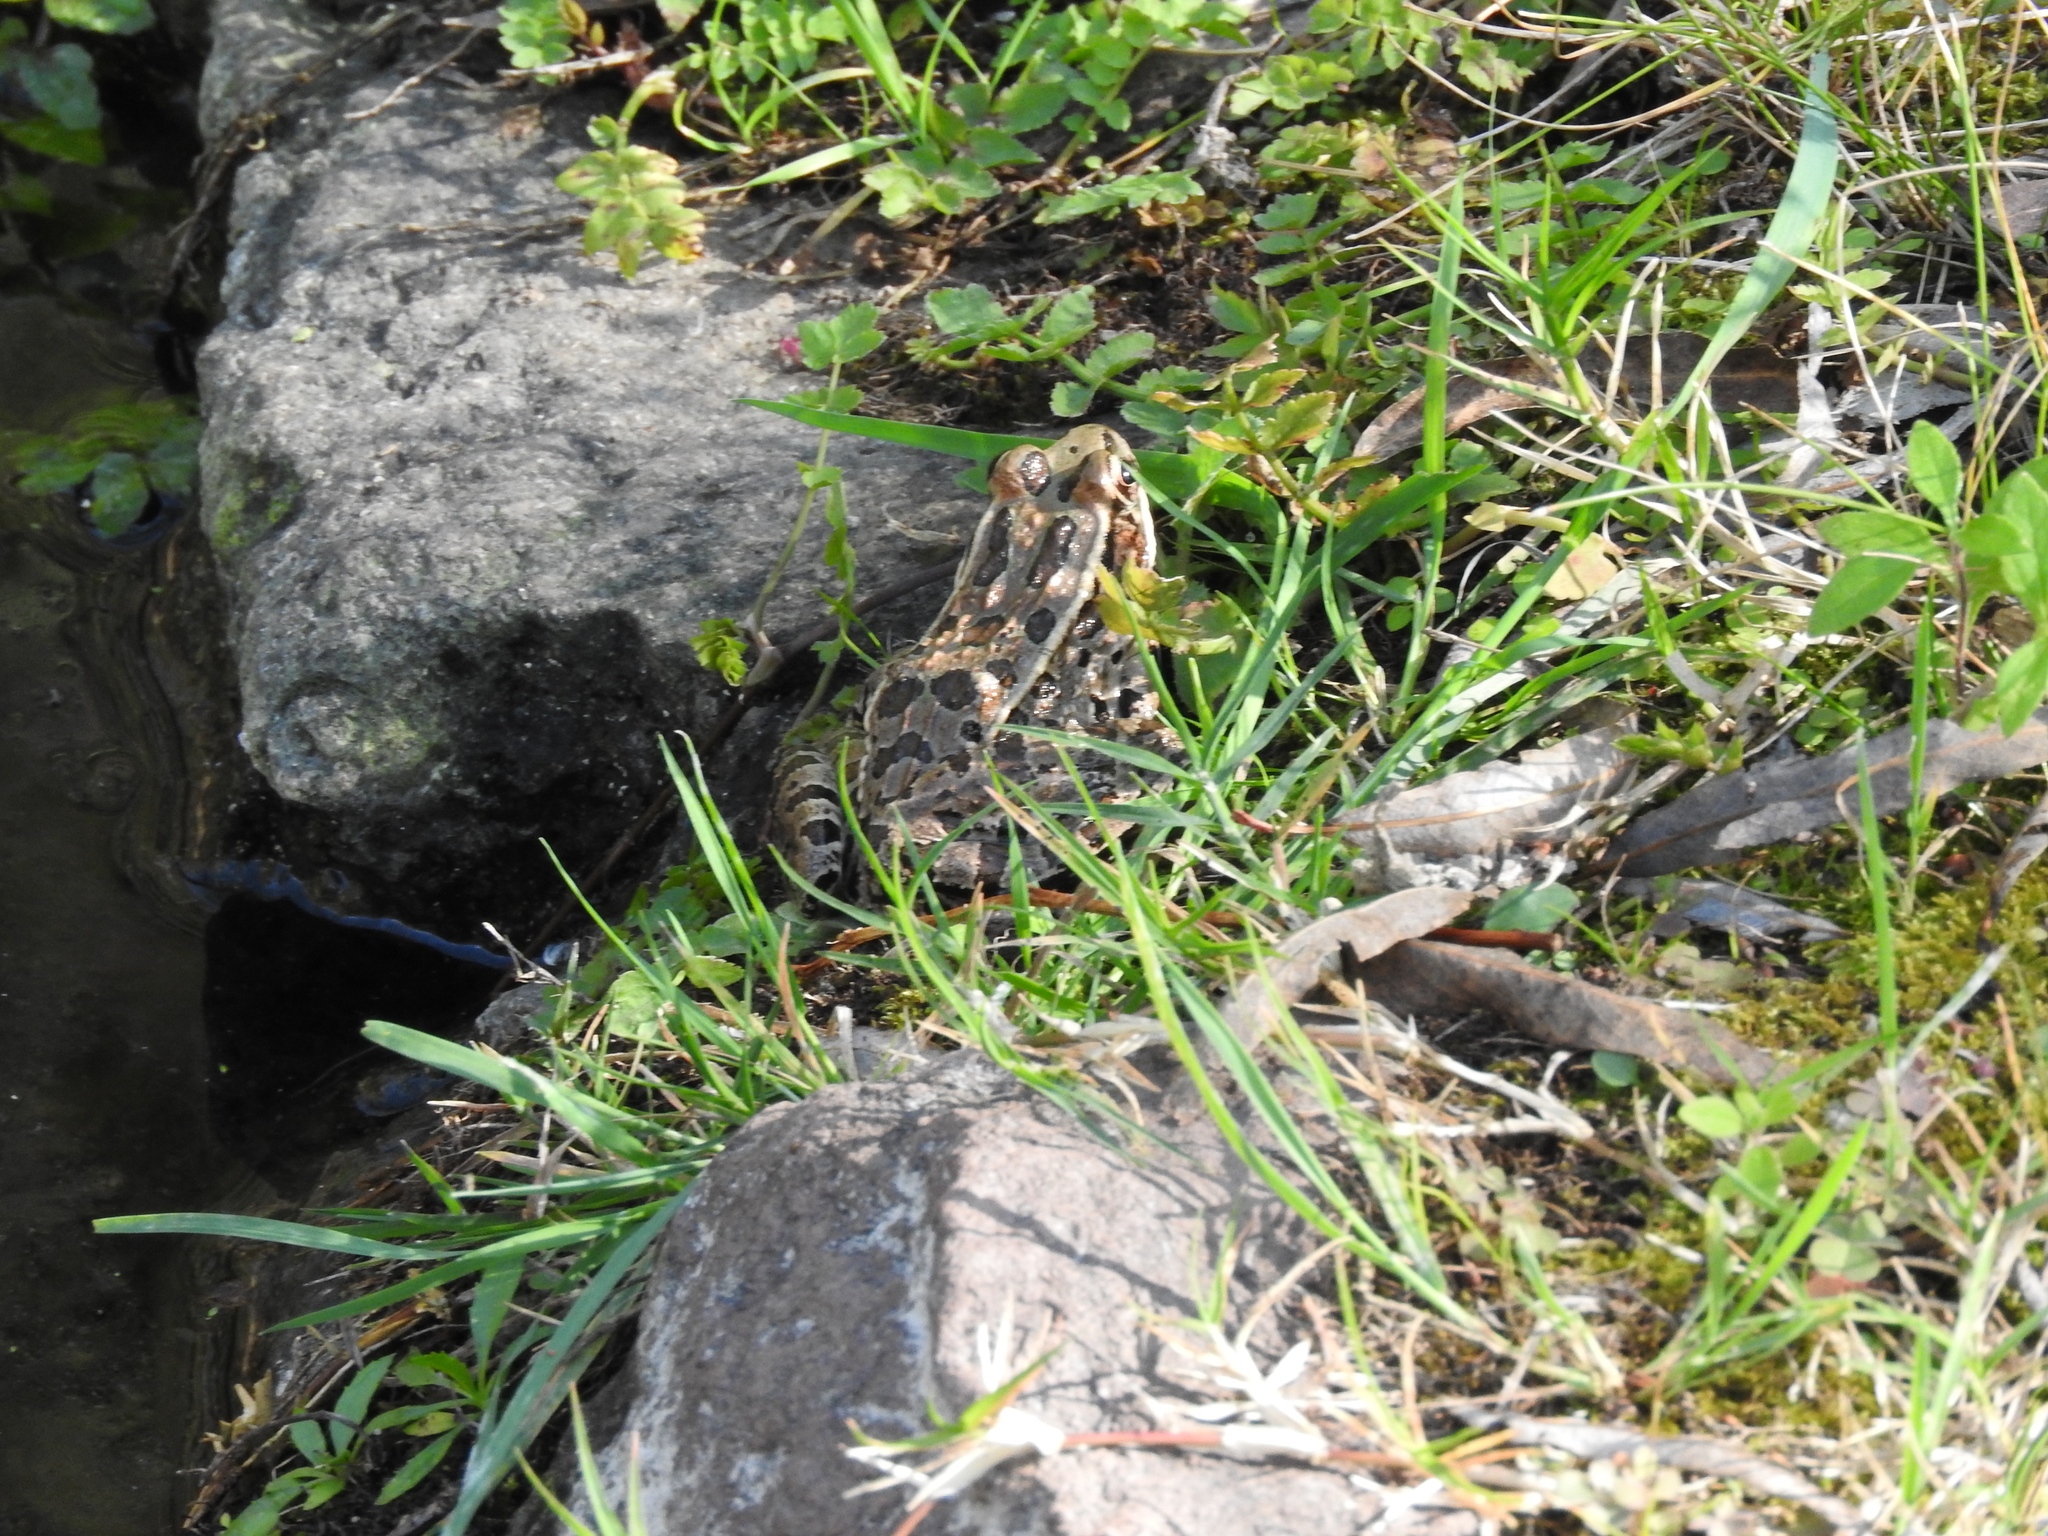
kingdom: Animalia
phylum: Chordata
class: Amphibia
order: Anura
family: Ranidae
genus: Lithobates
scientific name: Lithobates neovolcanicus
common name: Transverse volcanic leopard frog
